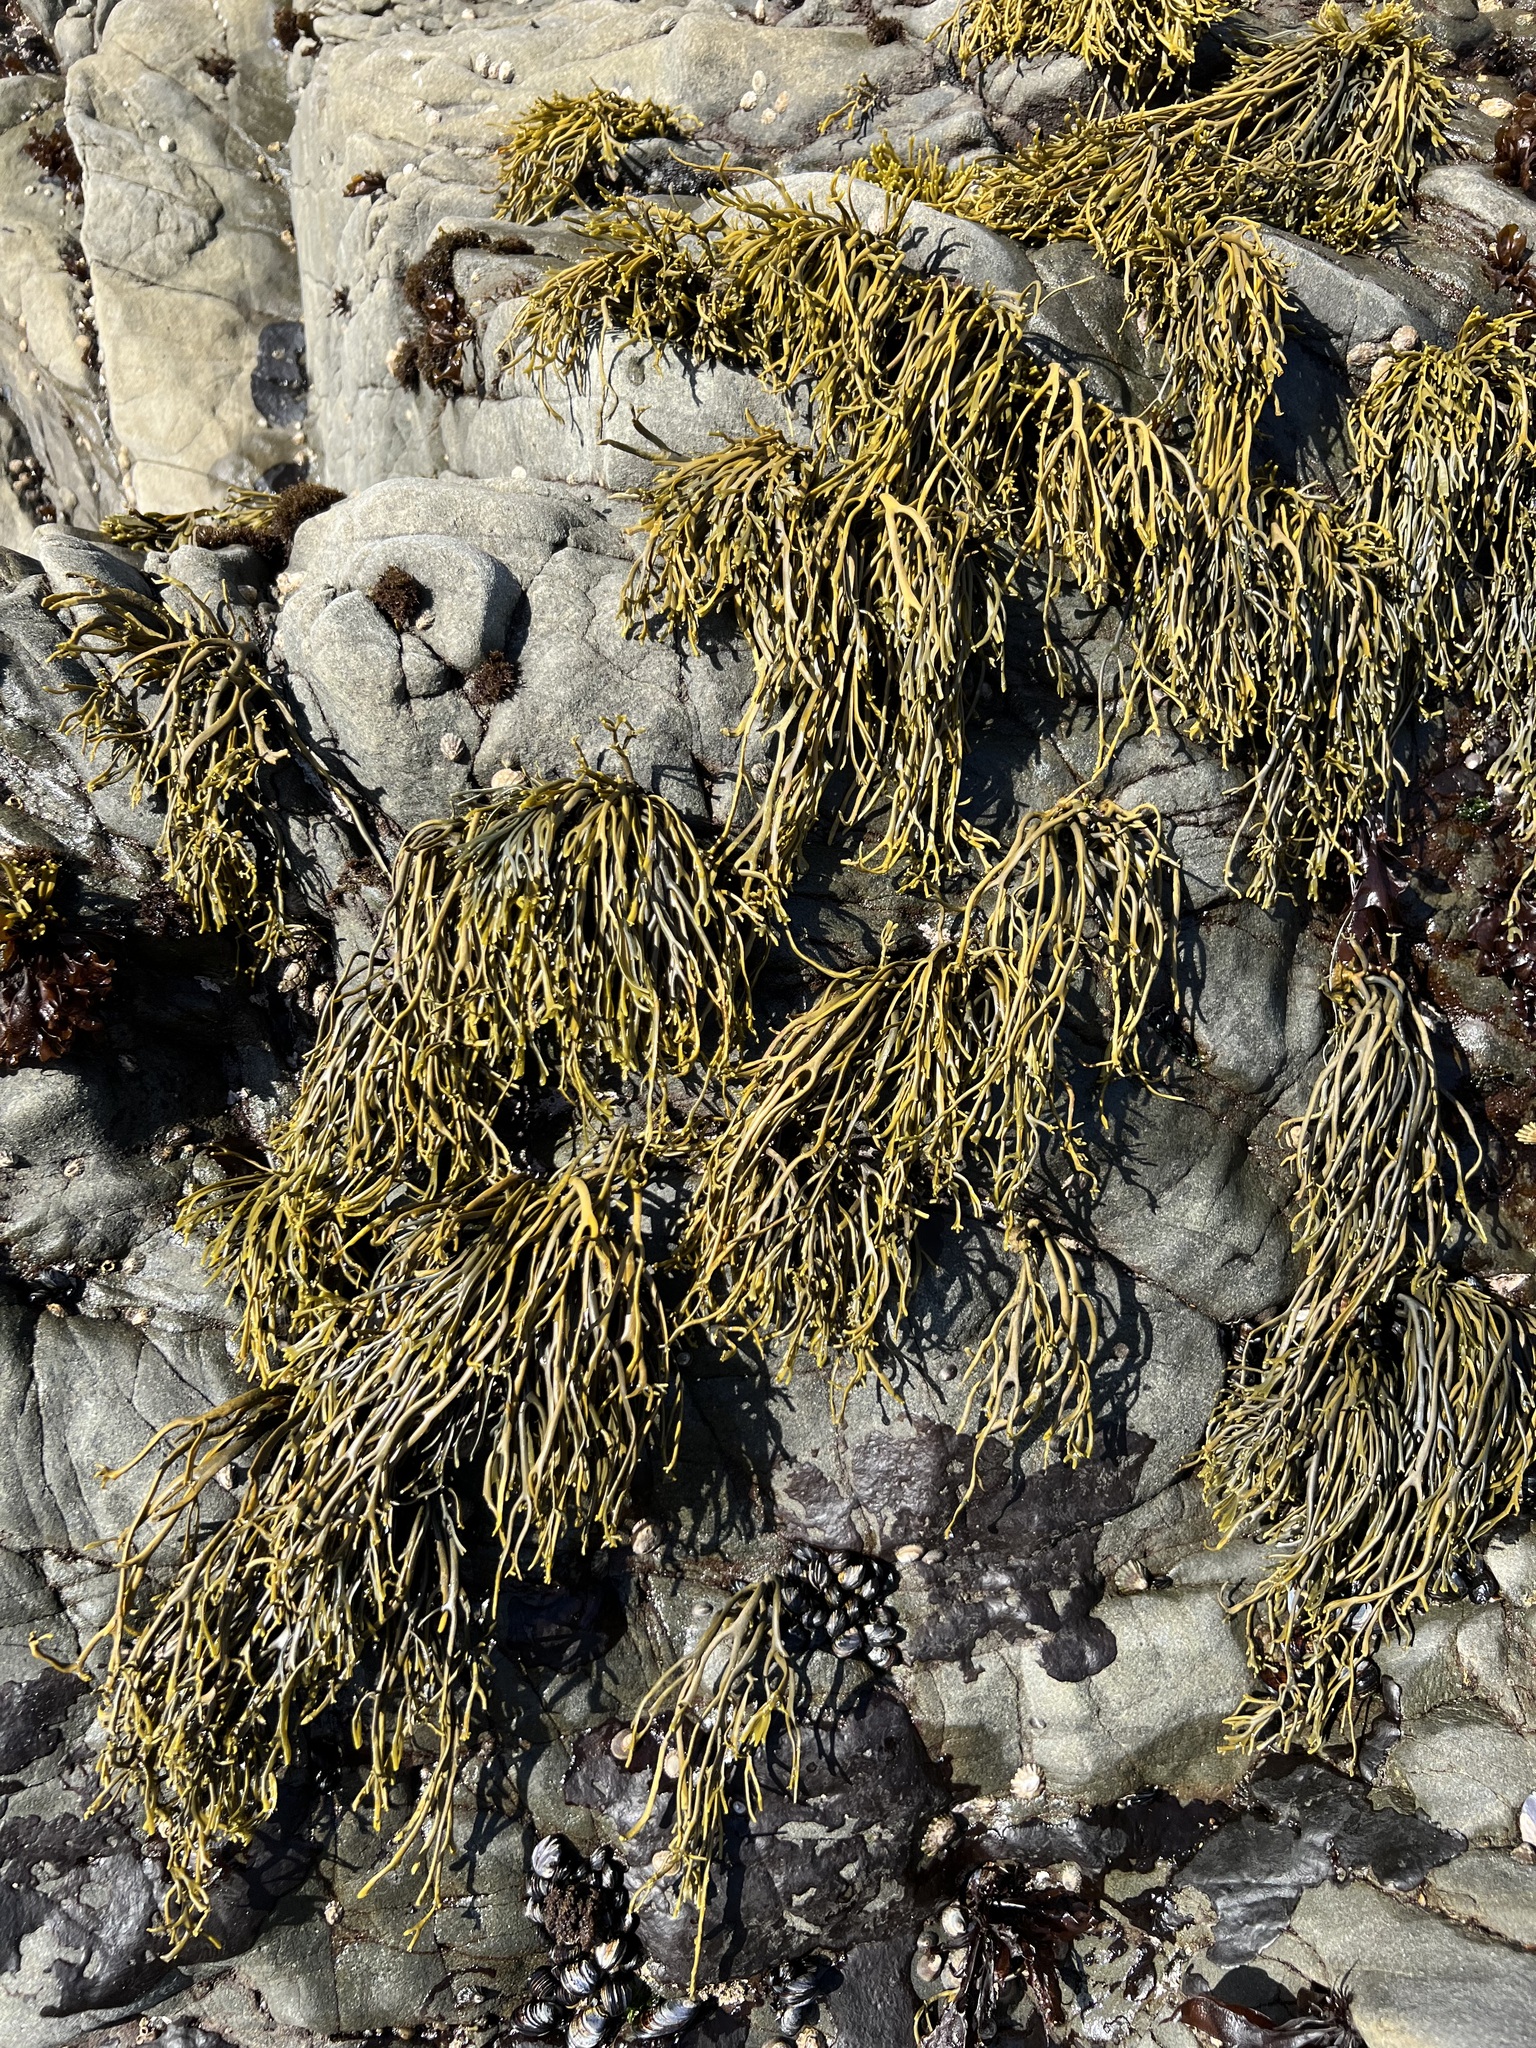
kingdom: Chromista
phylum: Ochrophyta
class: Phaeophyceae
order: Fucales
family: Fucaceae
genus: Silvetia
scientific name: Silvetia
